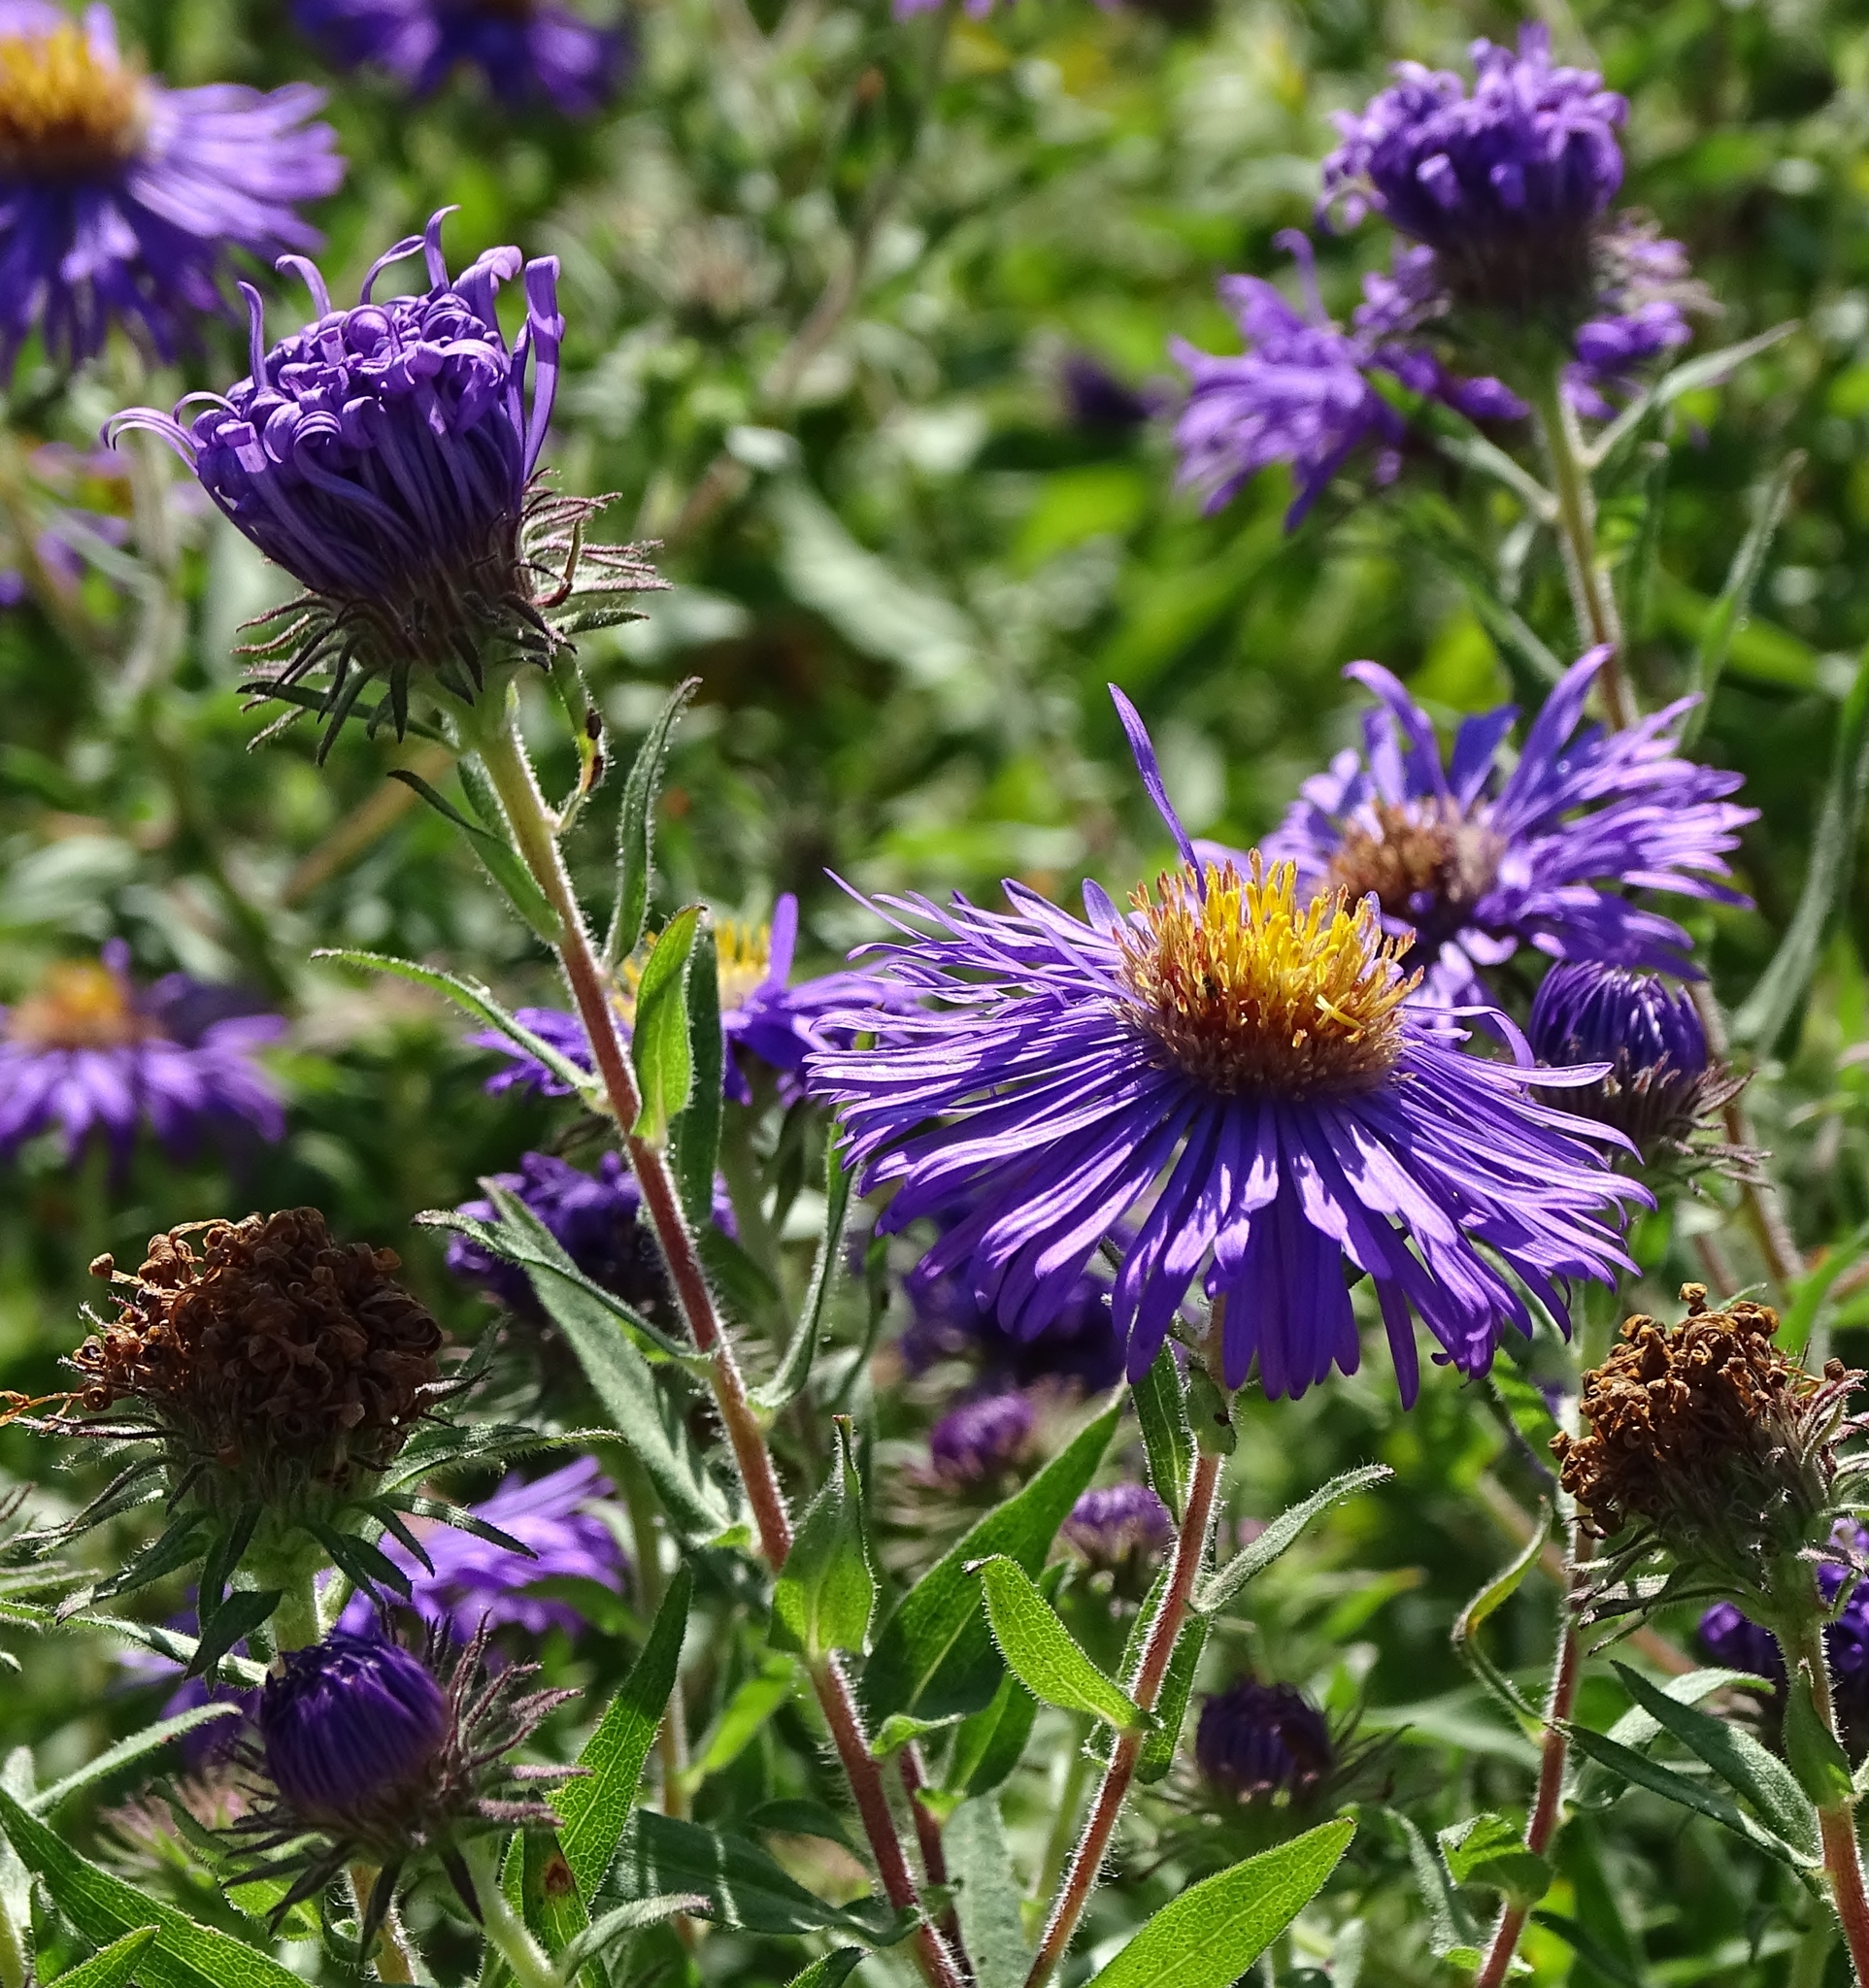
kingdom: Plantae
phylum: Tracheophyta
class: Magnoliopsida
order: Asterales
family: Asteraceae
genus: Symphyotrichum
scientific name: Symphyotrichum novae-angliae
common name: Michaelmas daisy
